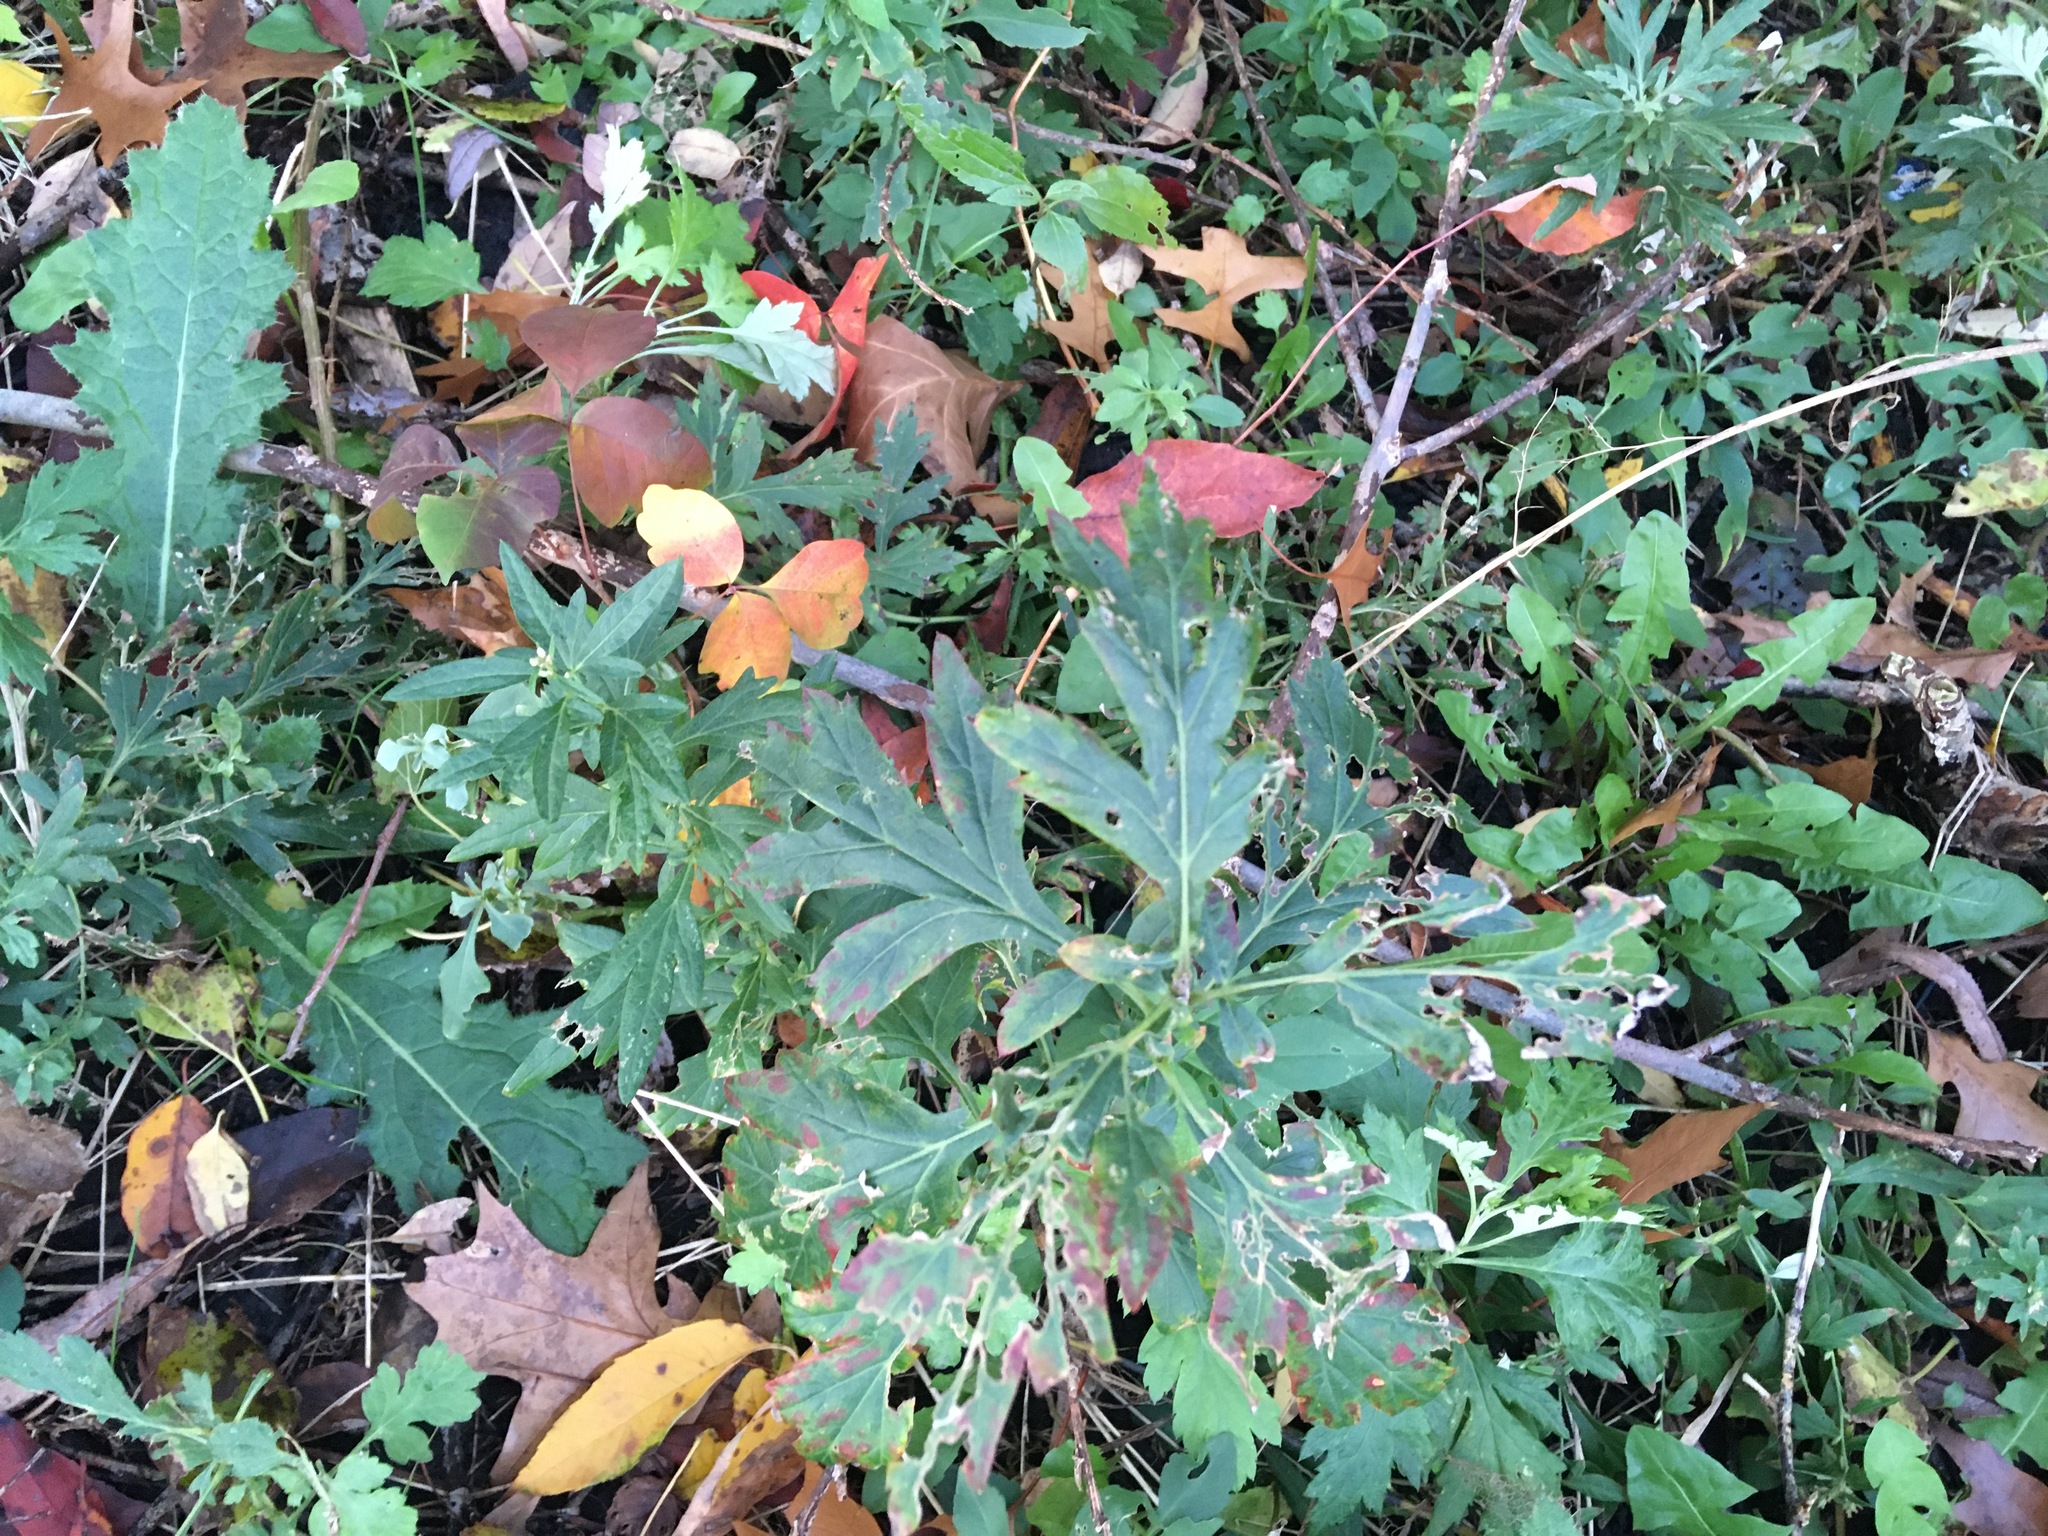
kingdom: Plantae
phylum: Tracheophyta
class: Magnoliopsida
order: Asterales
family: Asteraceae
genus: Artemisia
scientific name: Artemisia vulgaris
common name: Mugwort
